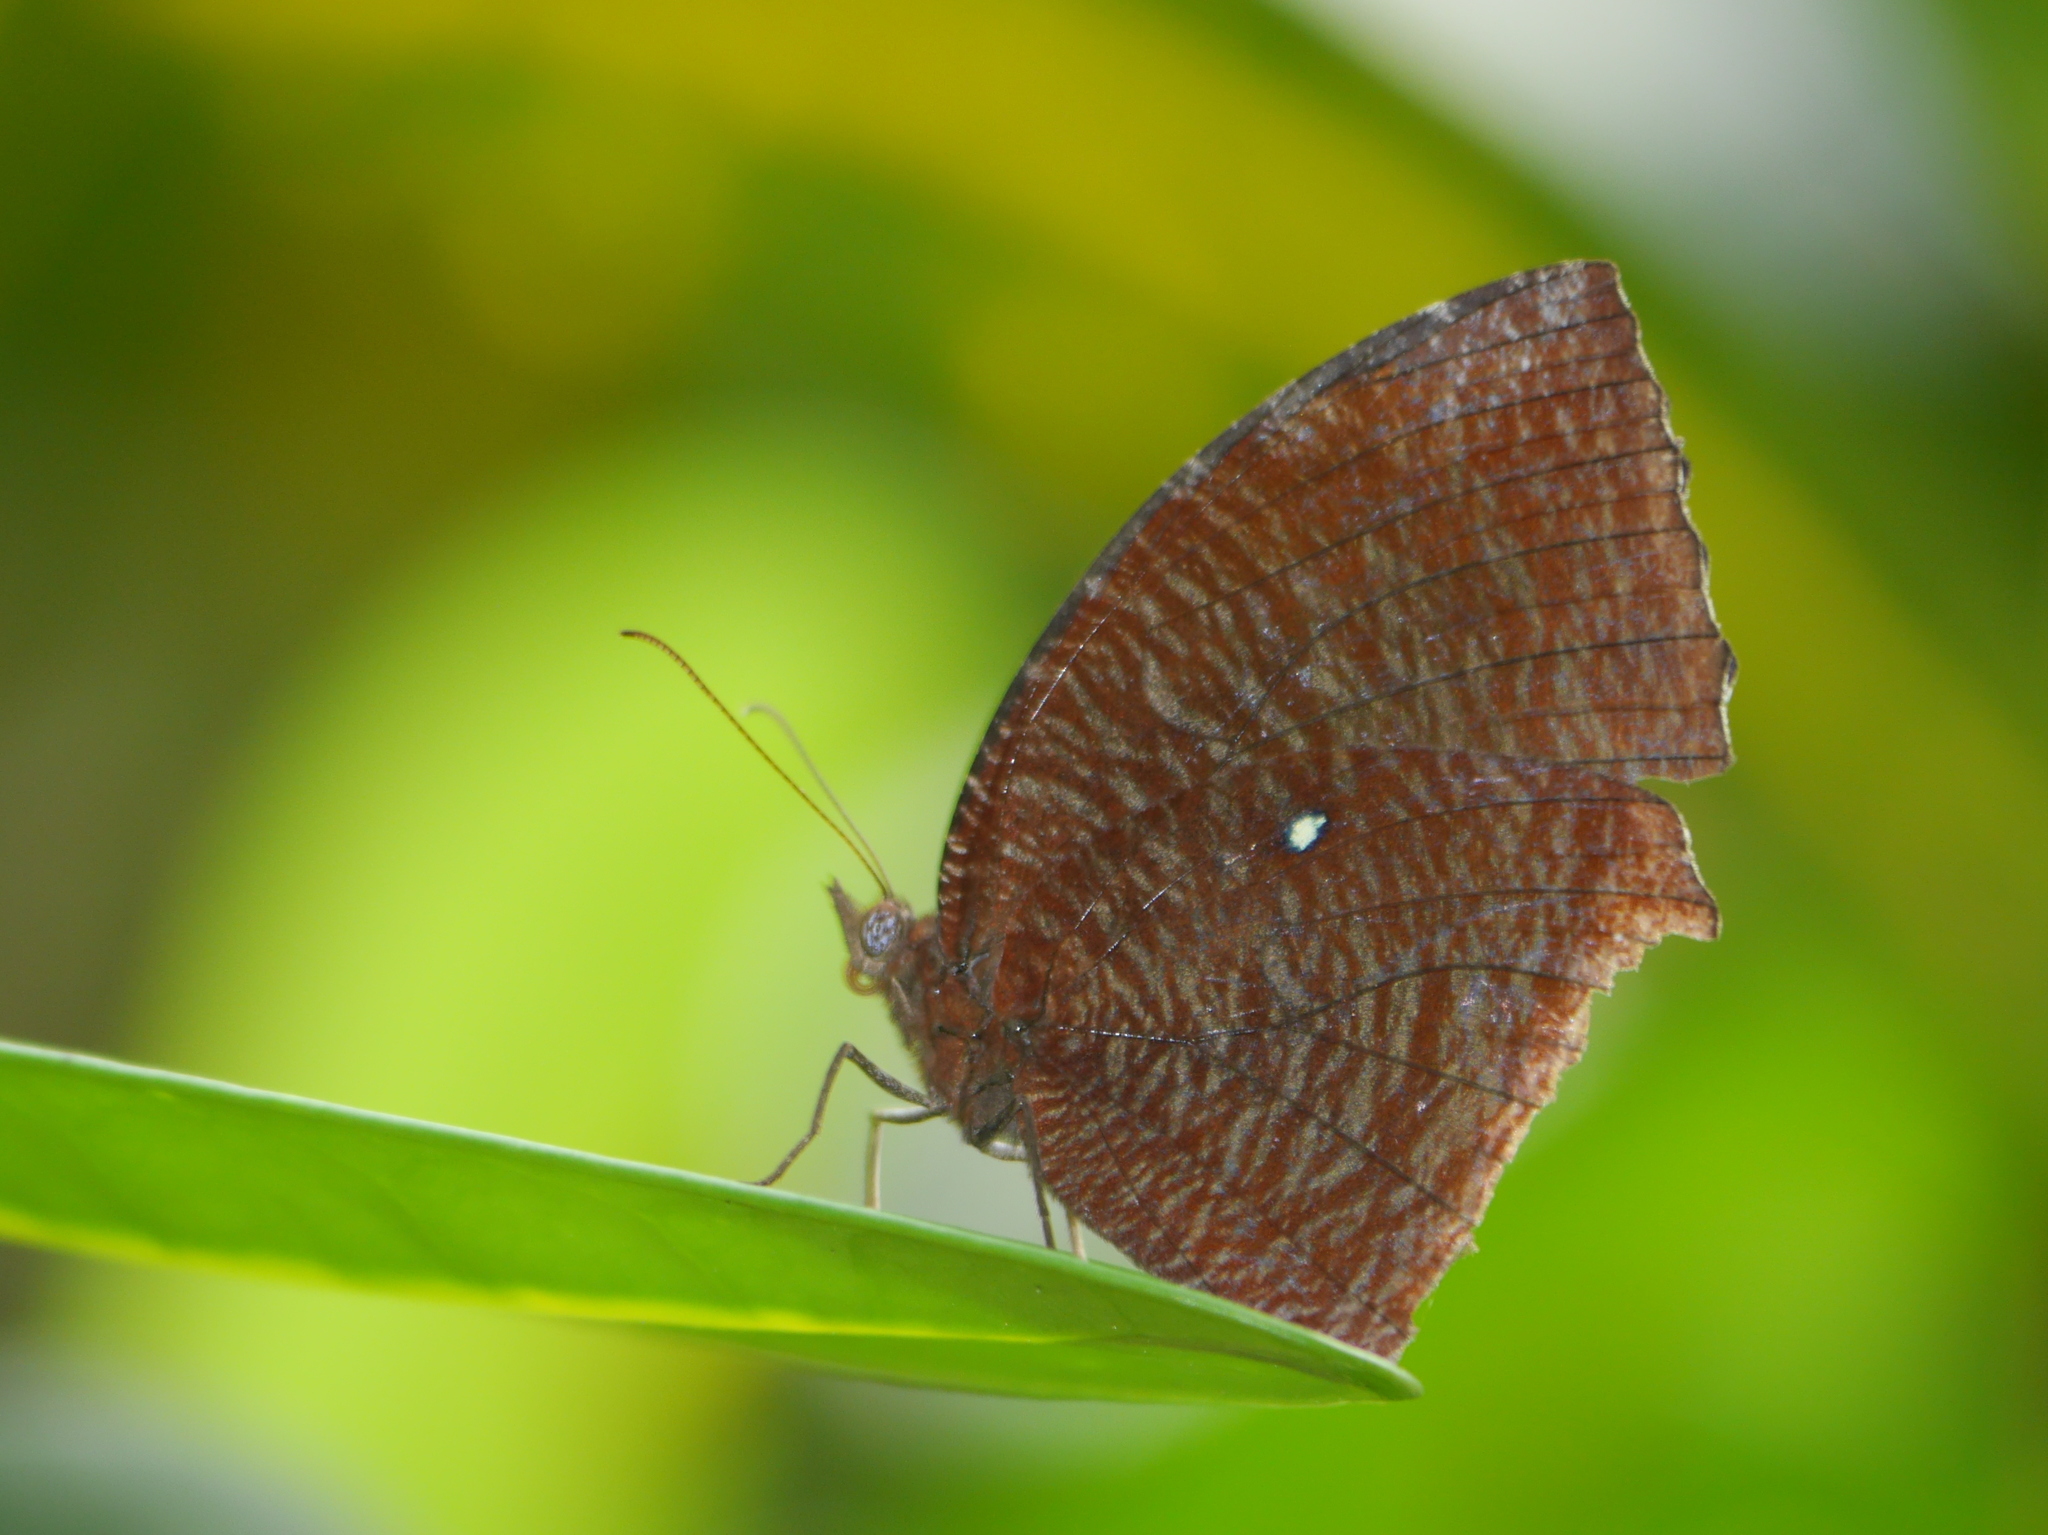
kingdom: Animalia
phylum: Arthropoda
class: Insecta
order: Lepidoptera
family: Nymphalidae
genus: Elymnias
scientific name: Elymnias hypermnestra
